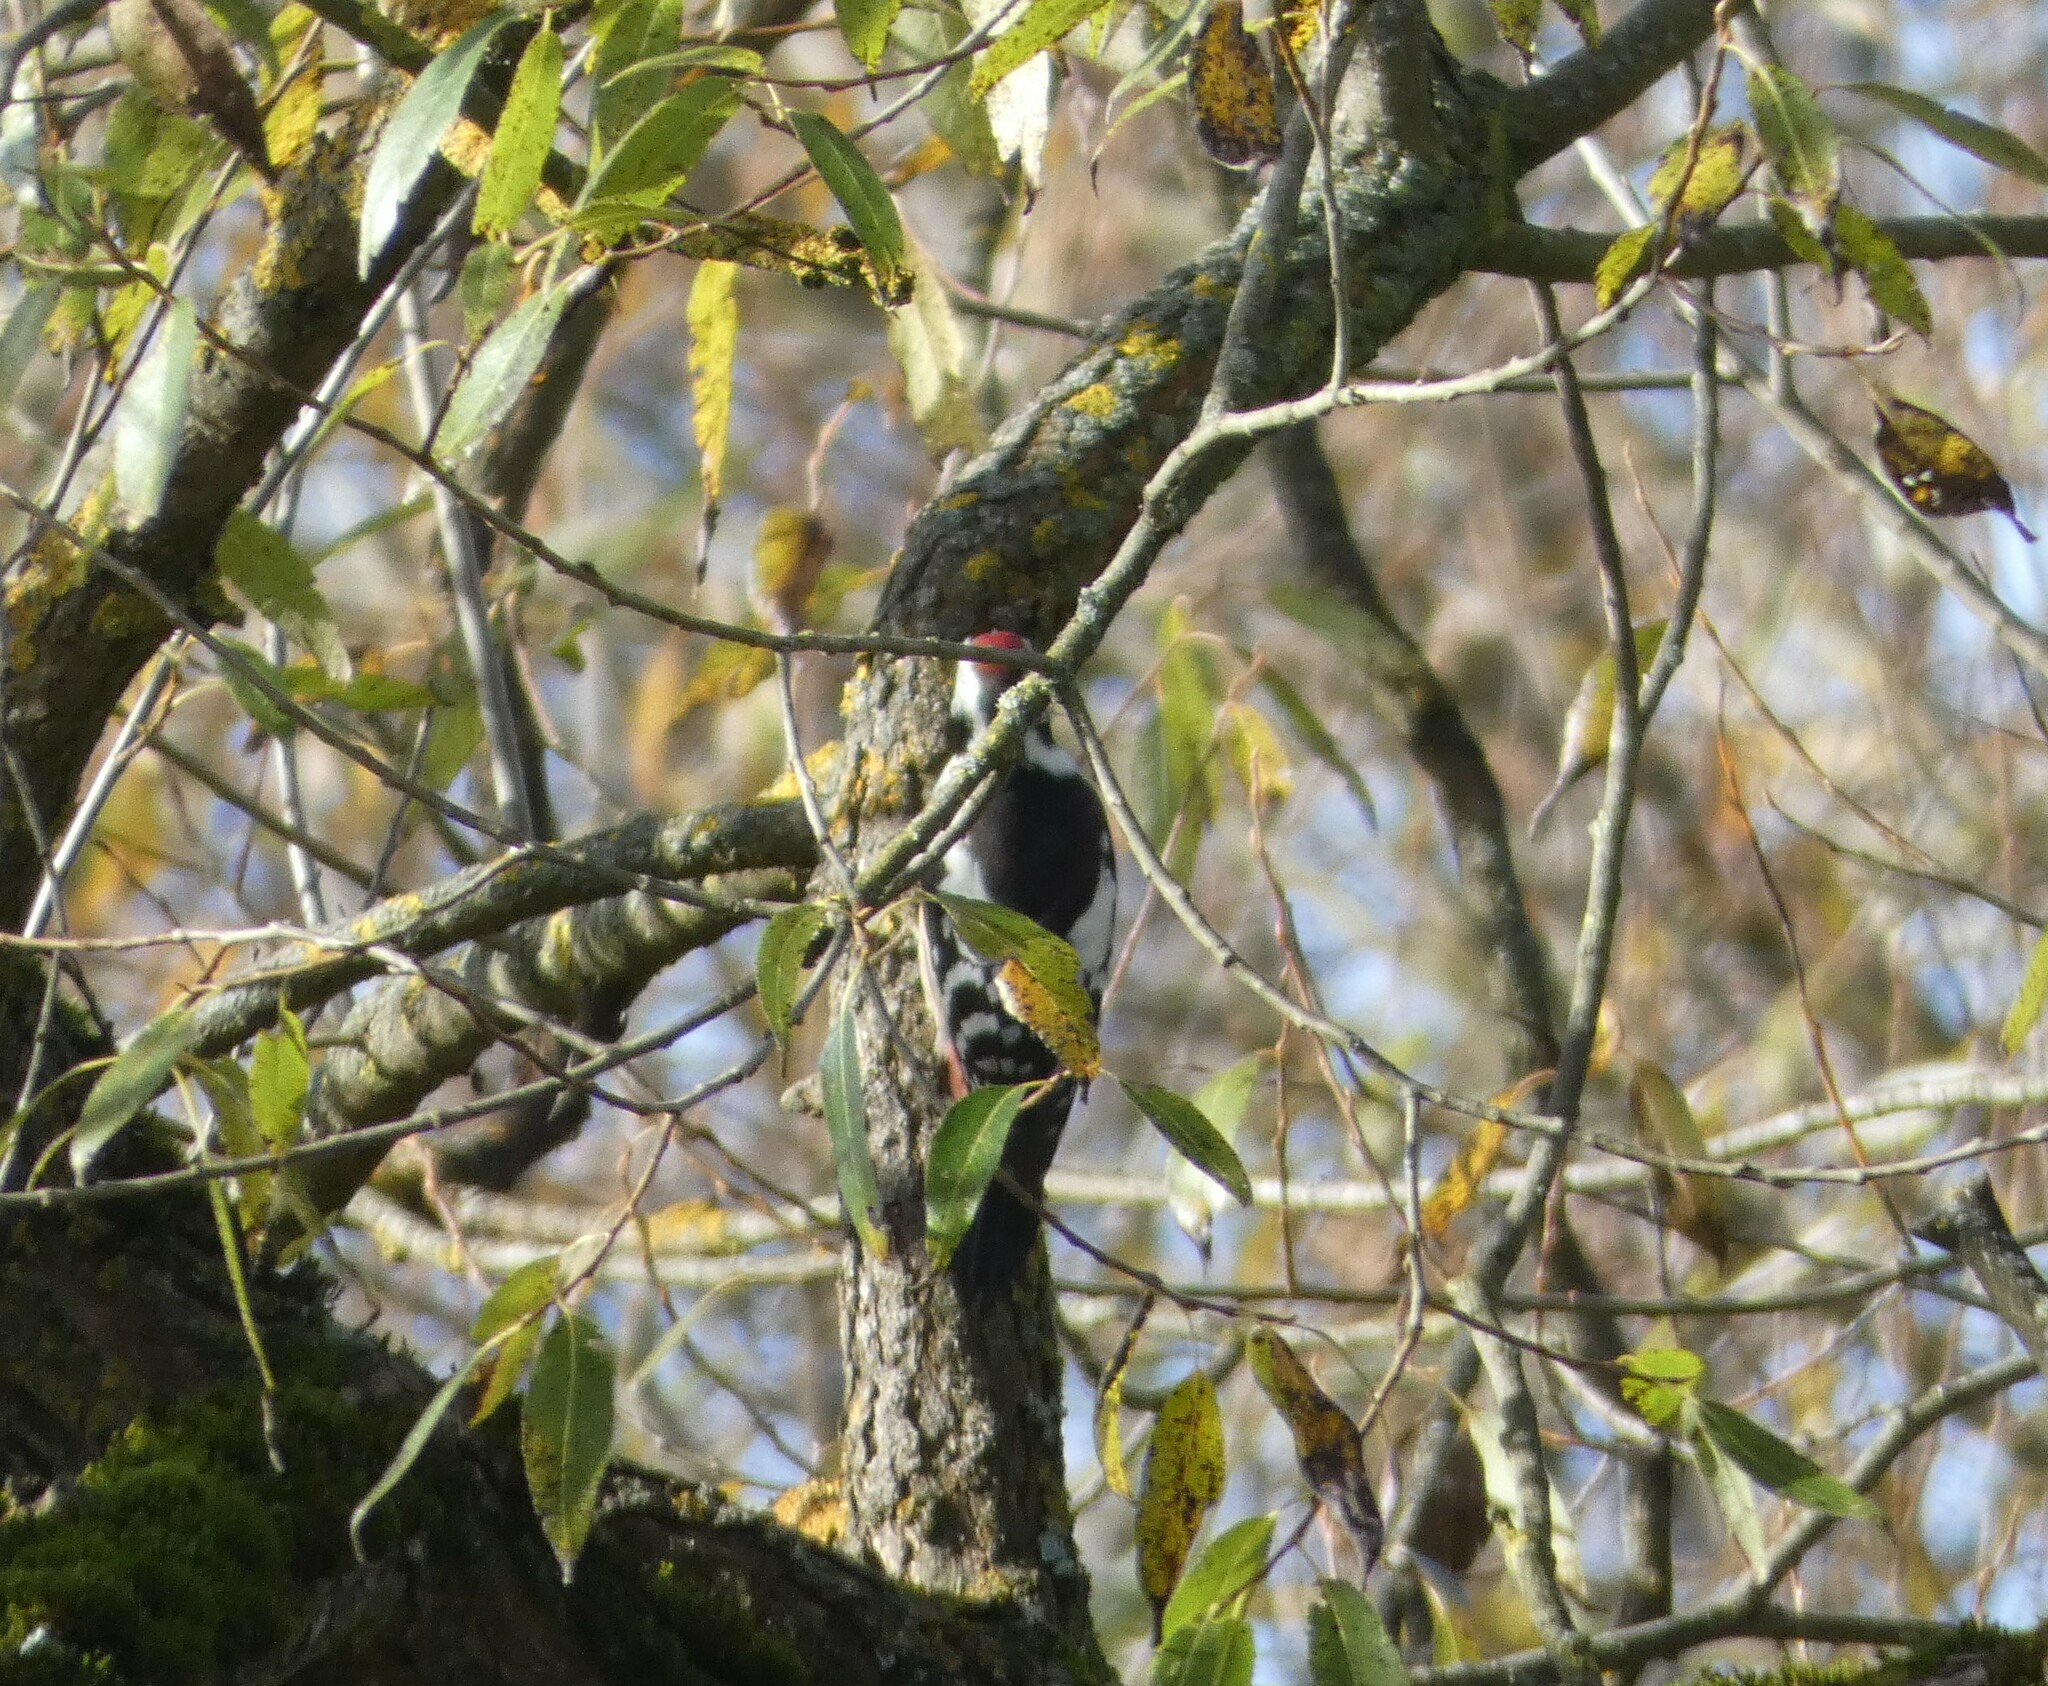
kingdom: Animalia
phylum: Chordata
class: Aves
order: Piciformes
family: Picidae
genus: Dendrocoptes
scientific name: Dendrocoptes medius
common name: Middle spotted woodpecker
